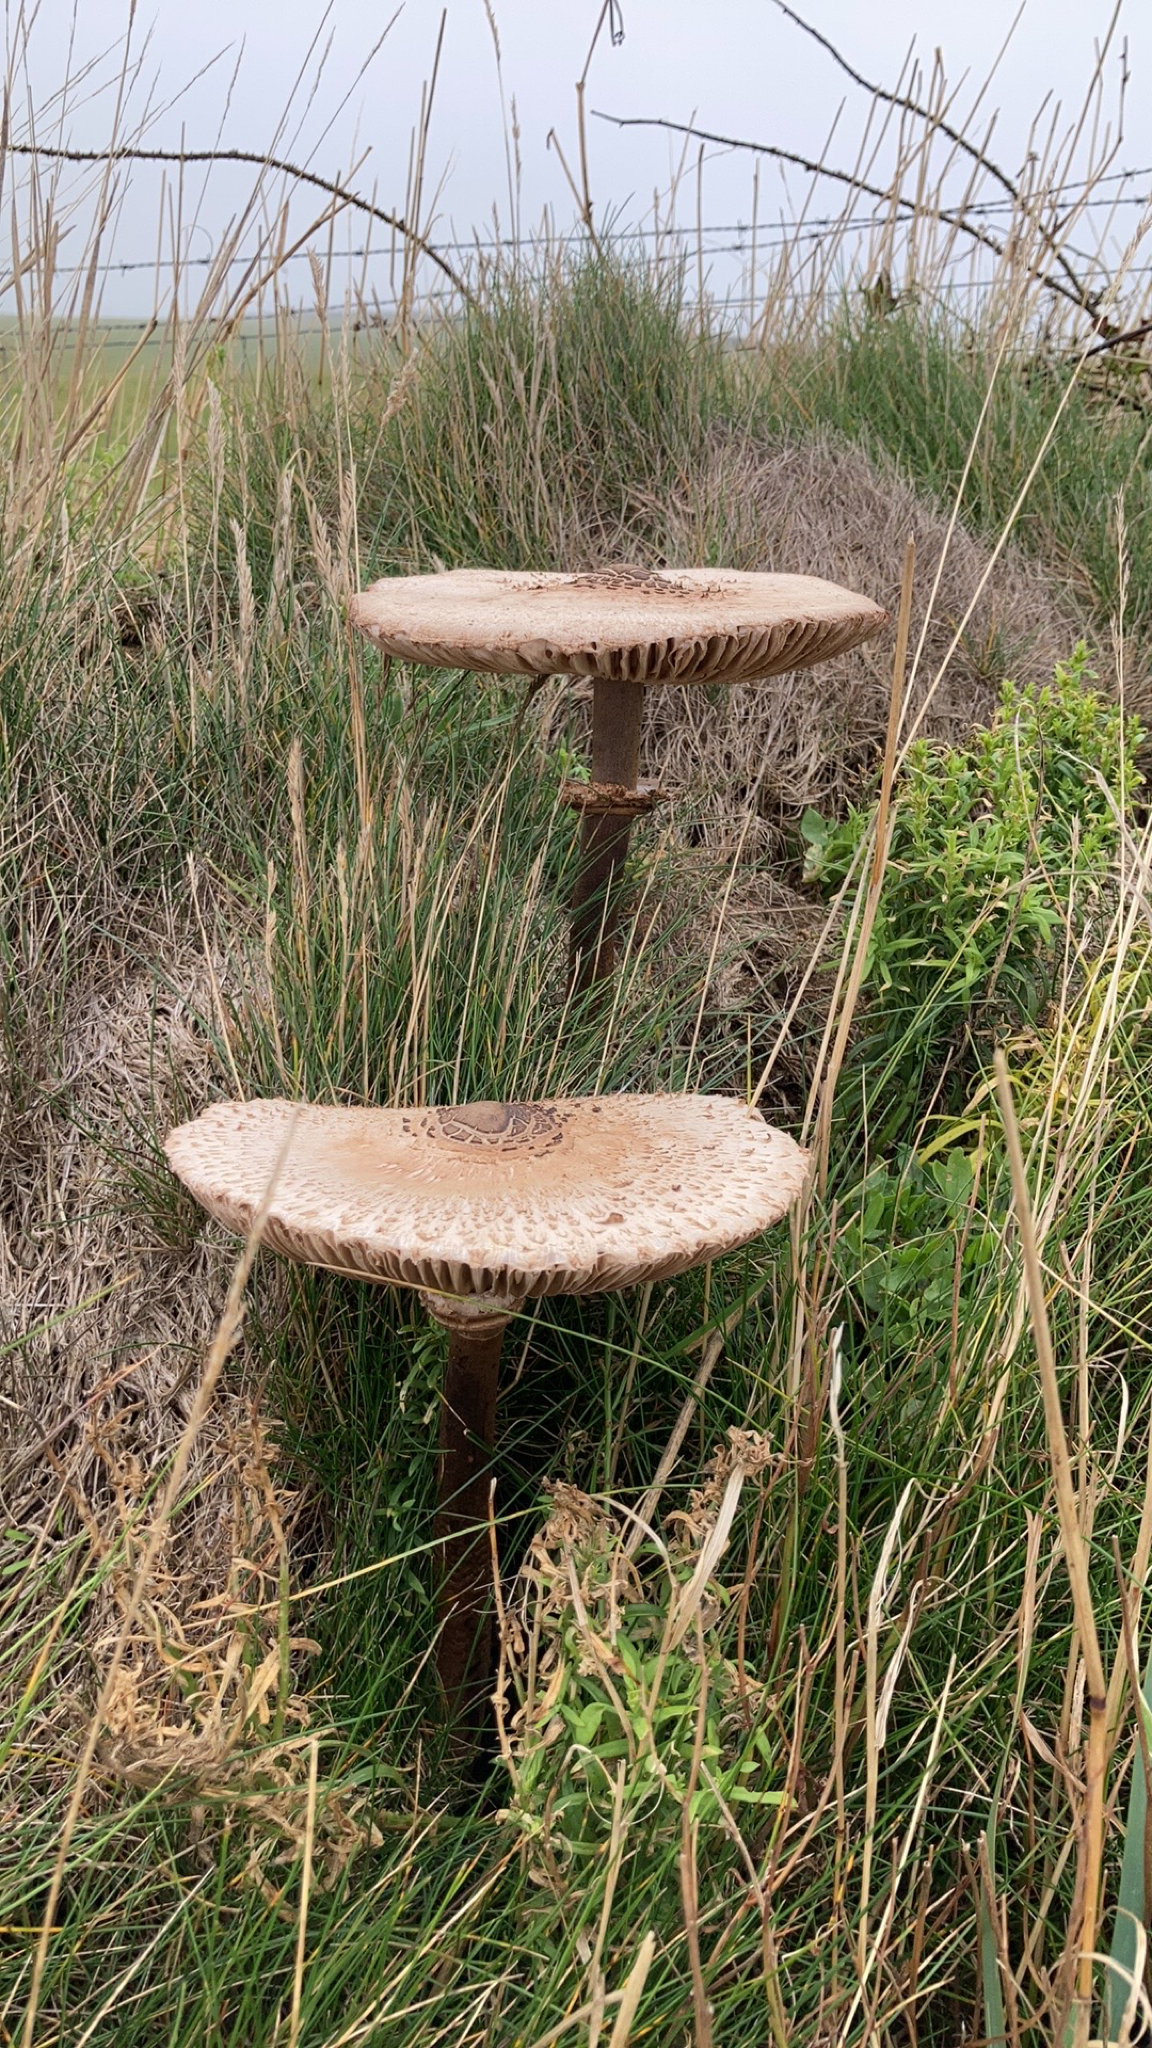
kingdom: Fungi
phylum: Basidiomycota
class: Agaricomycetes
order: Agaricales
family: Agaricaceae
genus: Macrolepiota
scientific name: Macrolepiota procera
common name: Parasol
